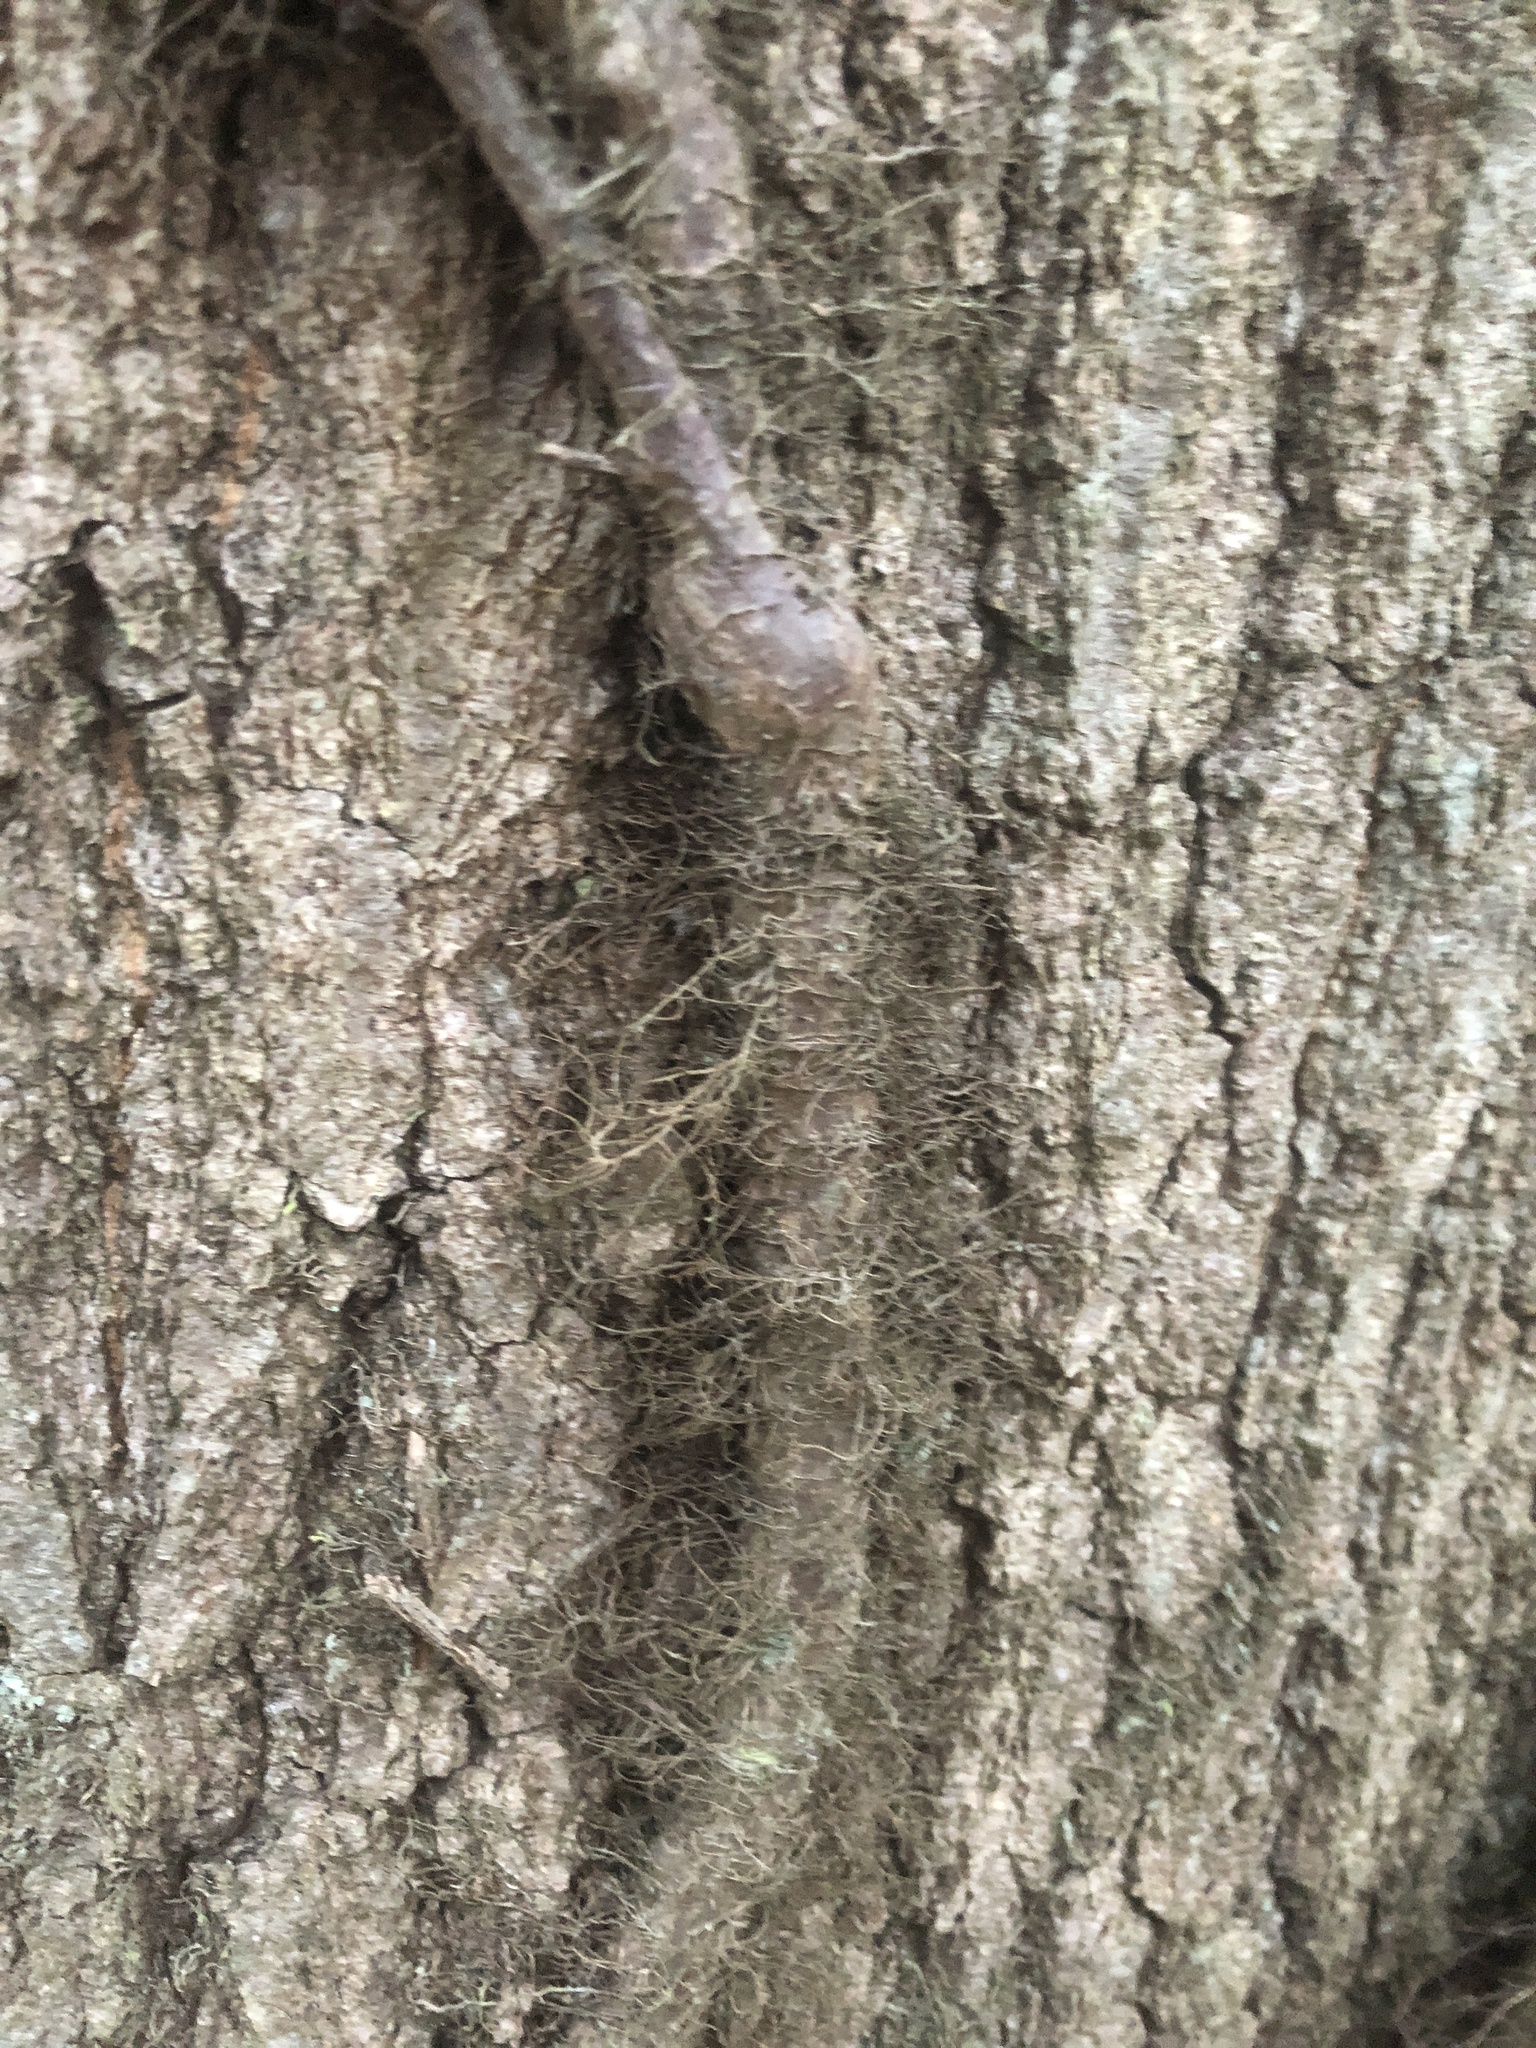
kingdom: Plantae
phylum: Tracheophyta
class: Magnoliopsida
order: Sapindales
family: Anacardiaceae
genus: Toxicodendron
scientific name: Toxicodendron radicans
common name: Poison ivy
